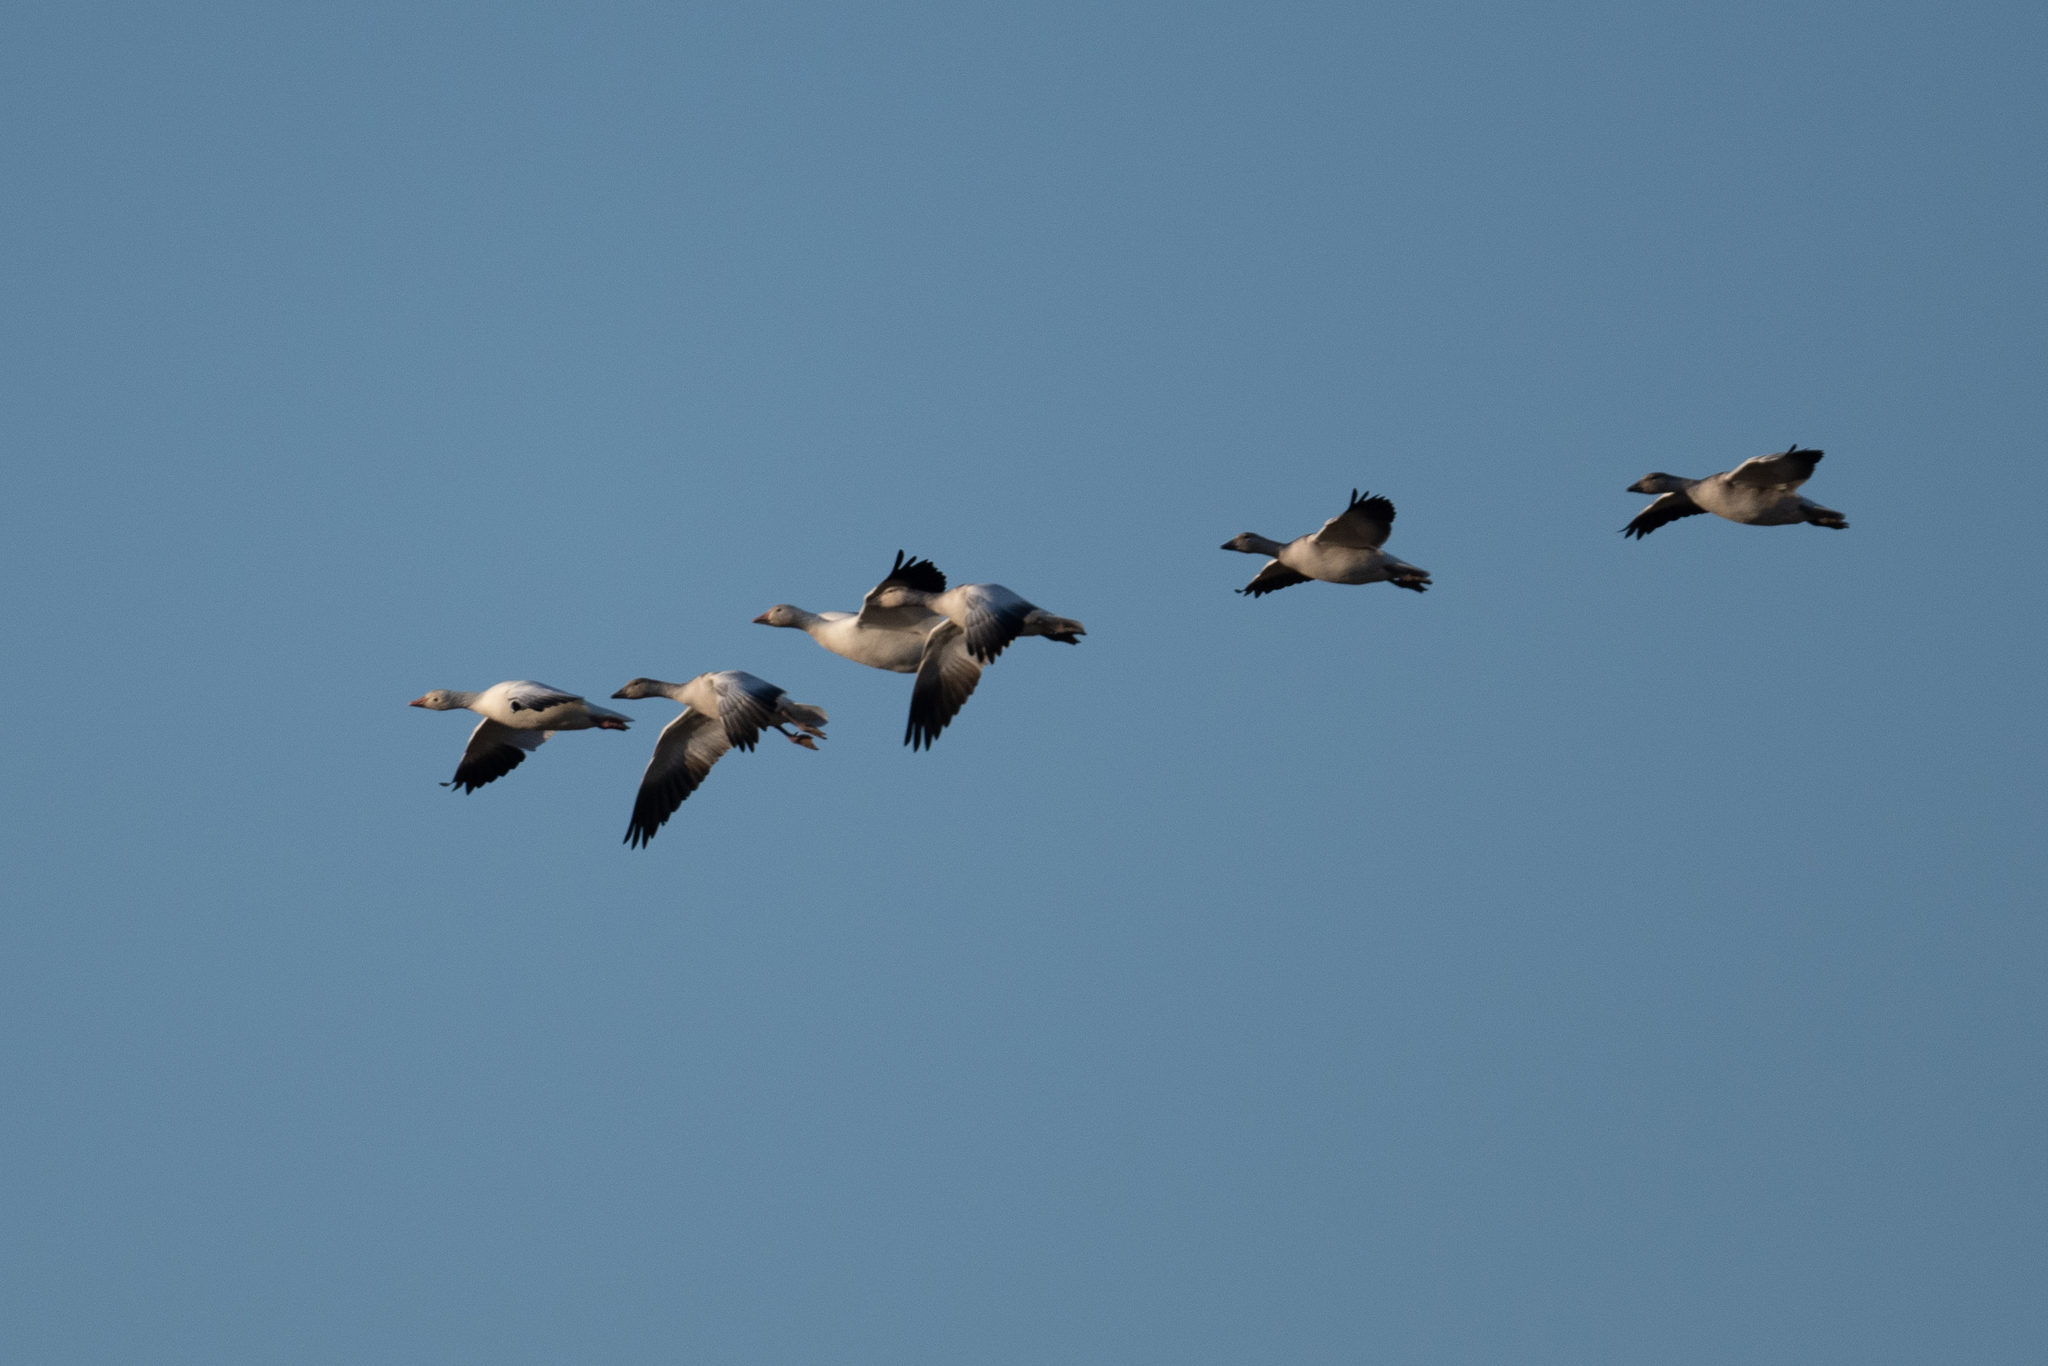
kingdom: Animalia
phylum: Chordata
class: Aves
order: Anseriformes
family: Anatidae
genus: Anser
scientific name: Anser caerulescens
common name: Snow goose
